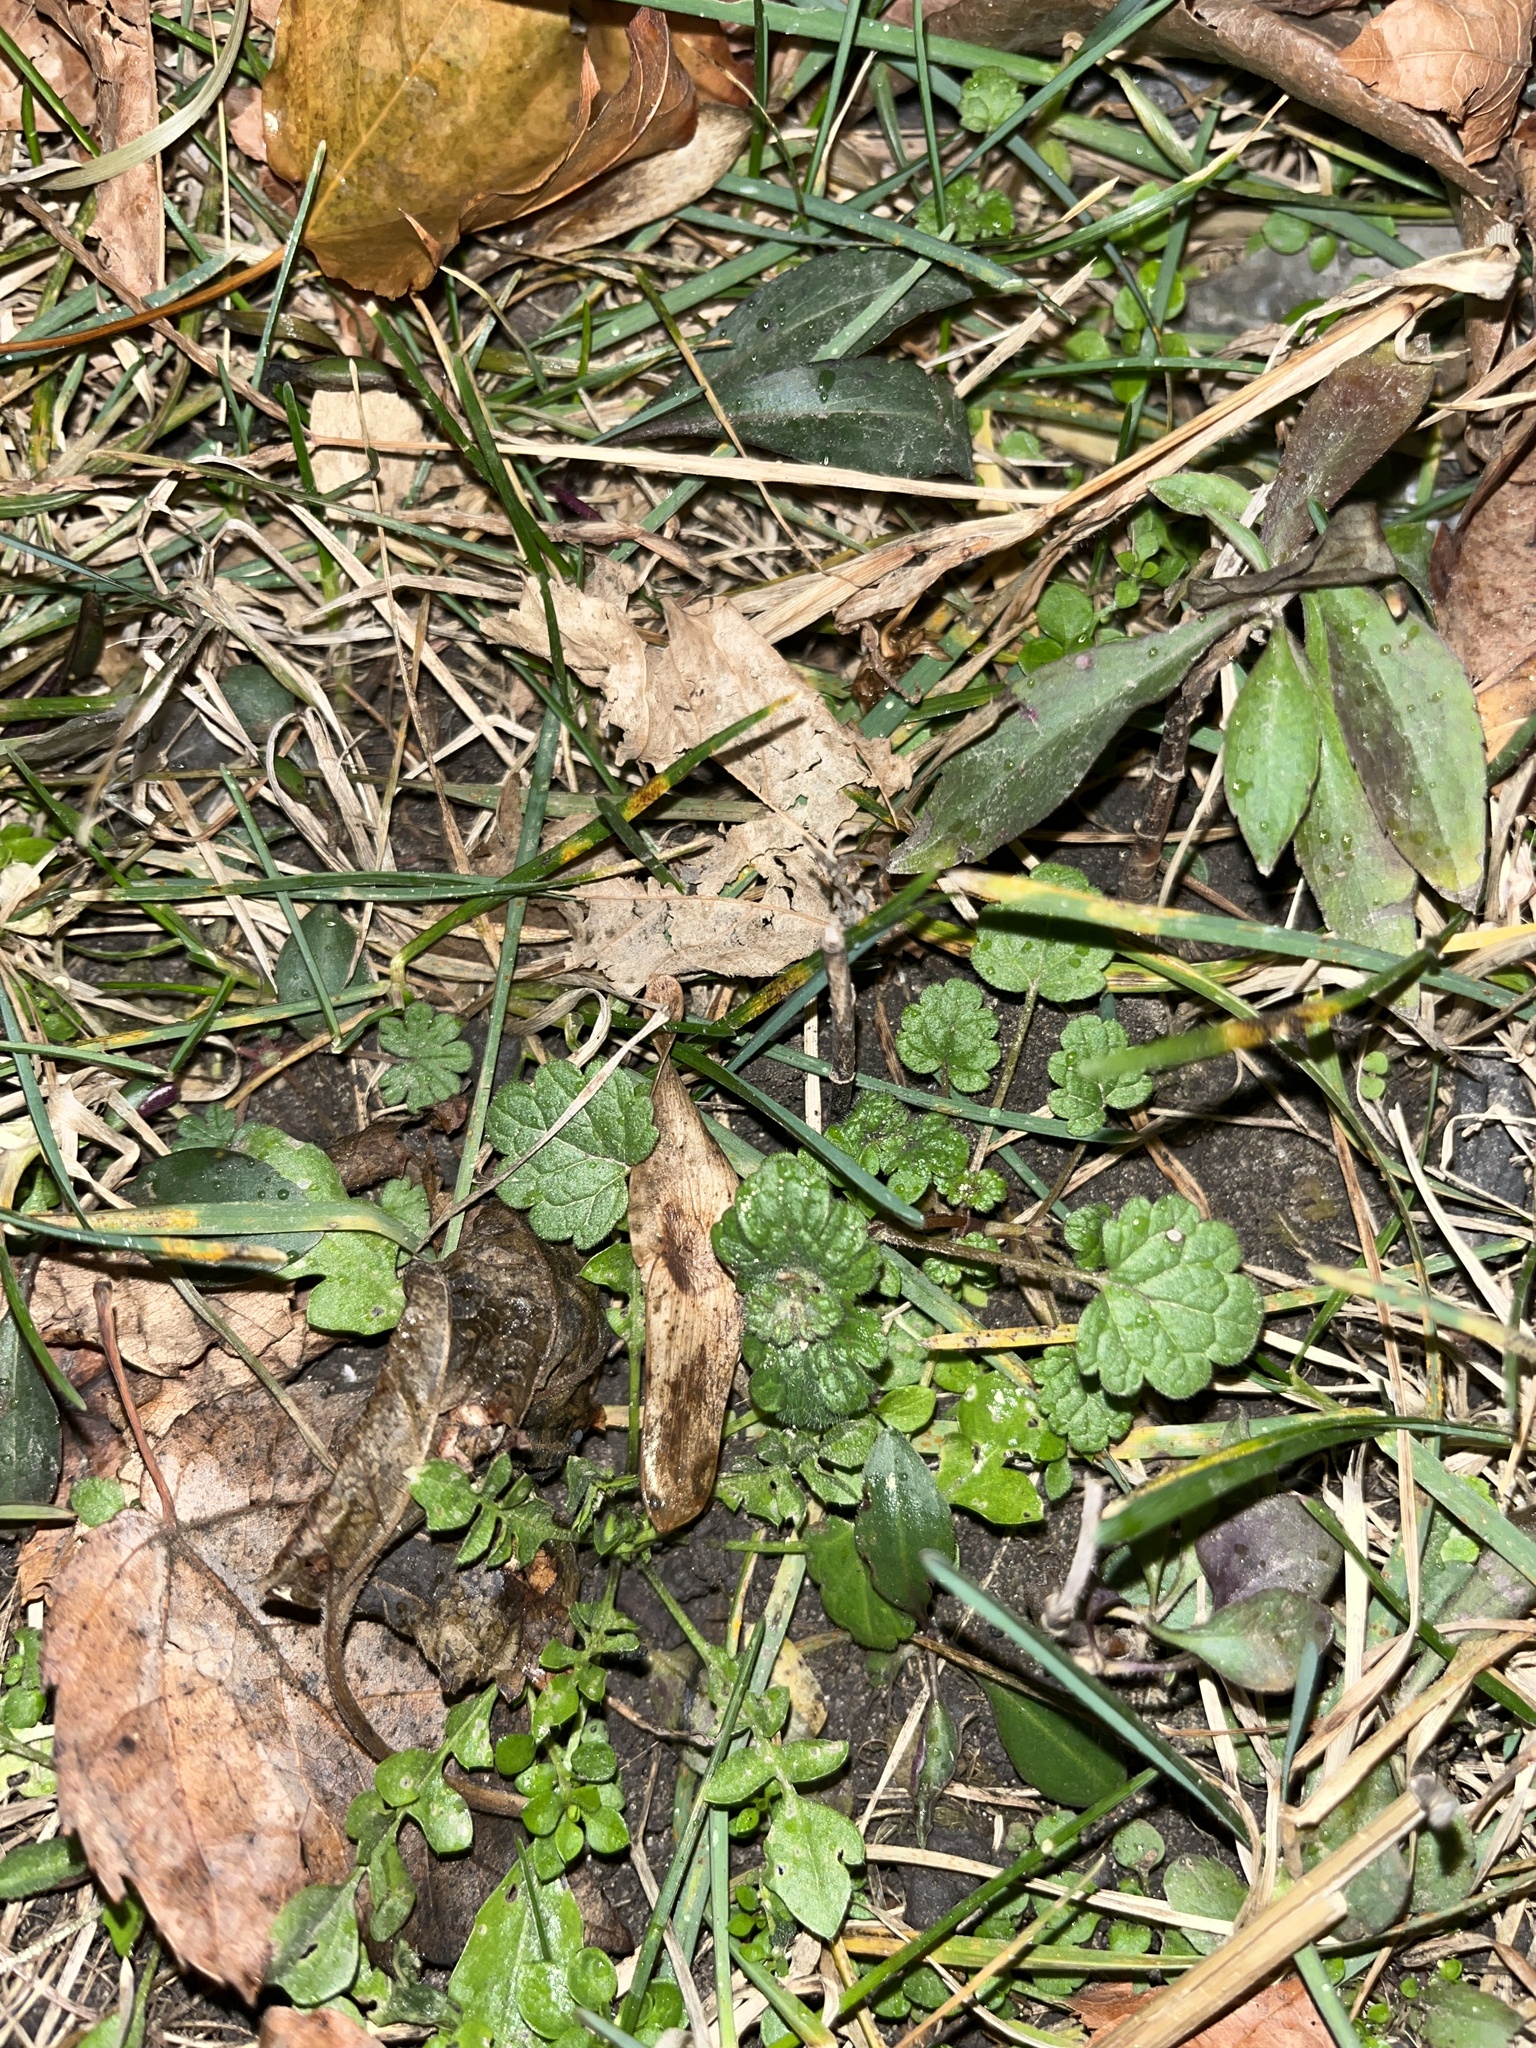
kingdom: Plantae
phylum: Tracheophyta
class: Magnoliopsida
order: Lamiales
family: Lamiaceae
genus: Lamium
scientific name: Lamium amplexicaule
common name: Henbit dead-nettle
